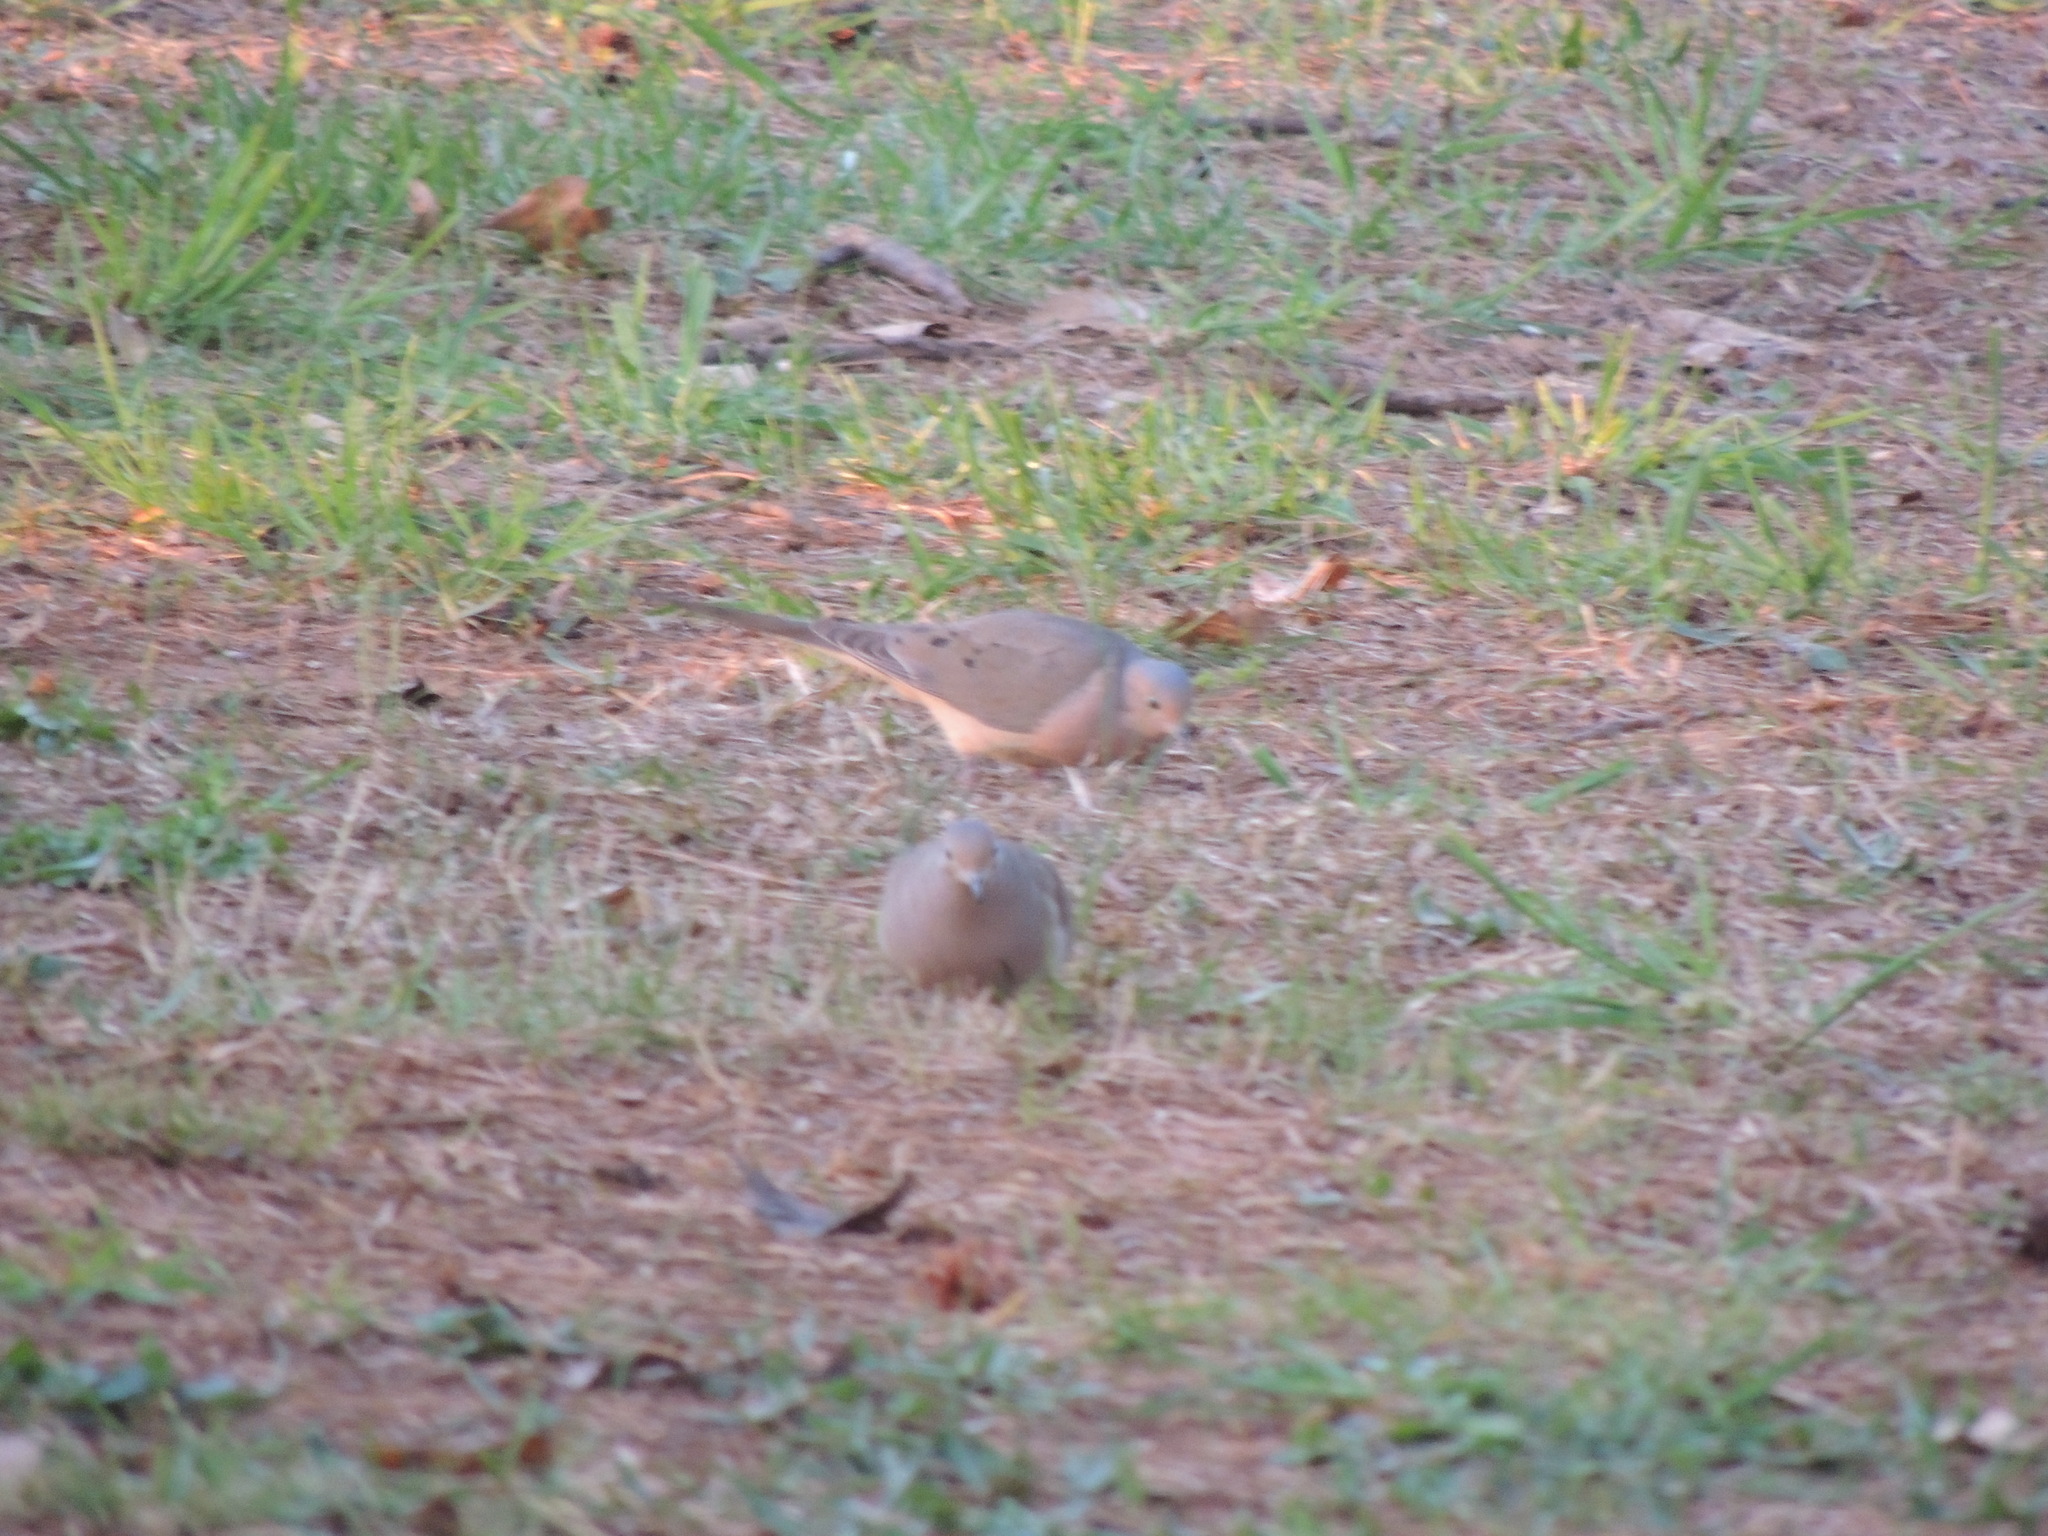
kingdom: Animalia
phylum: Chordata
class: Aves
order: Columbiformes
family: Columbidae
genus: Zenaida
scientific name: Zenaida macroura
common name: Mourning dove
